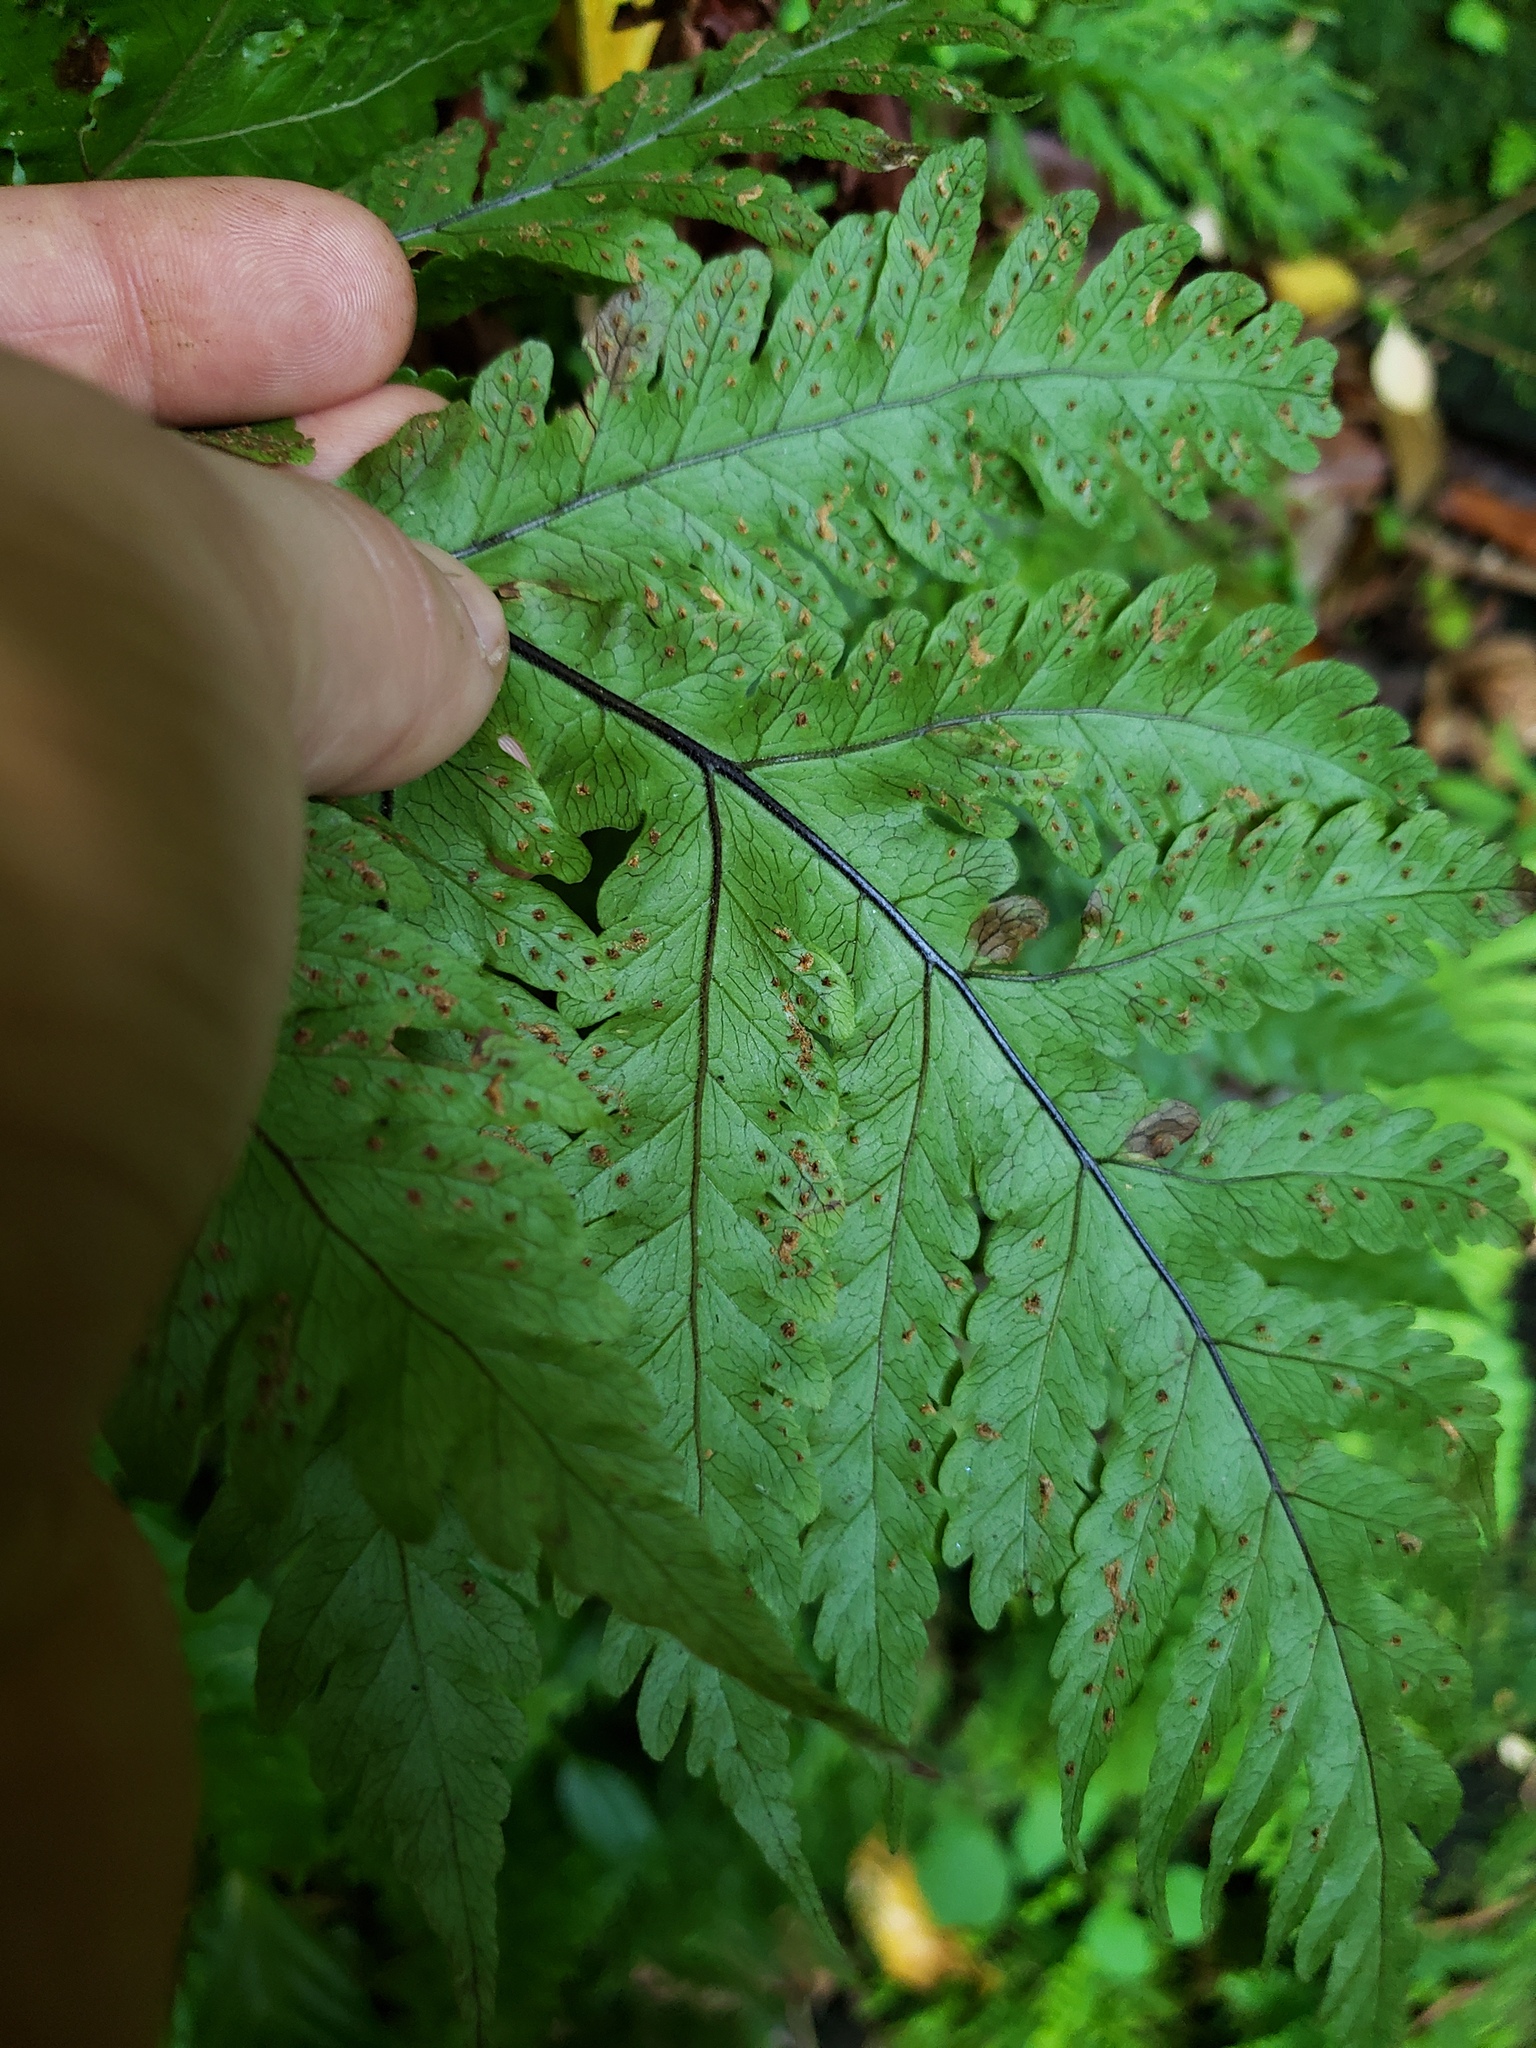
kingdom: Plantae
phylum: Tracheophyta
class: Polypodiopsida
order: Polypodiales
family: Tectariaceae
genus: Tectaria
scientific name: Tectaria gaudichaudii
